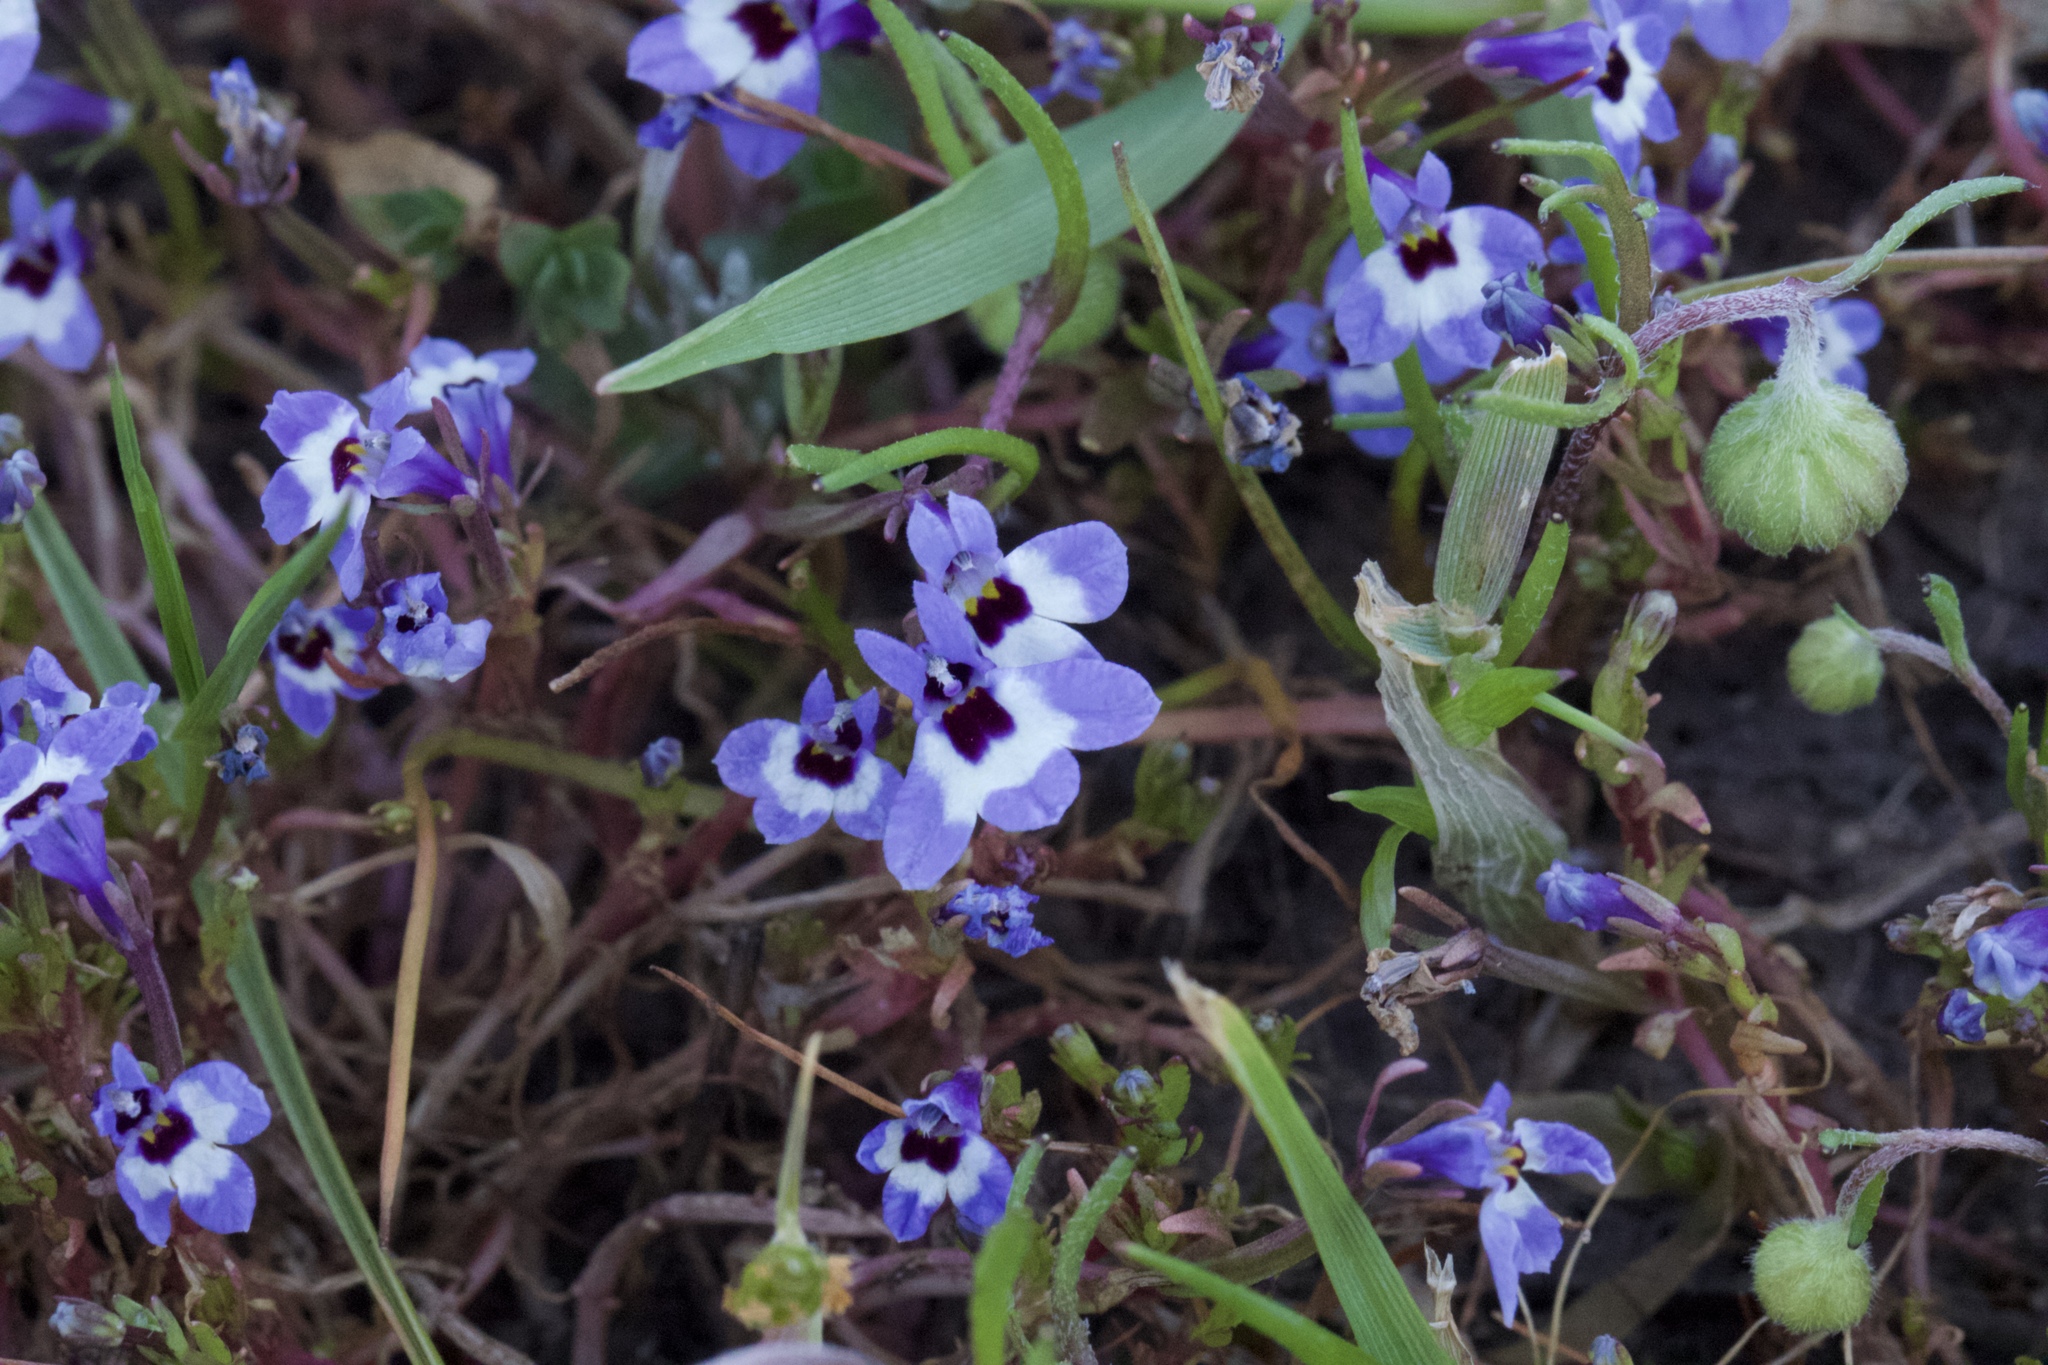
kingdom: Plantae
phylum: Tracheophyta
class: Magnoliopsida
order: Asterales
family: Campanulaceae
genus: Downingia
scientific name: Downingia concolor
